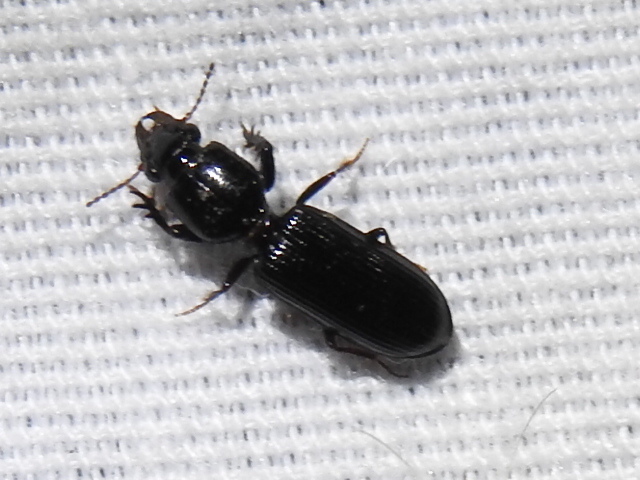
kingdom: Animalia
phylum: Arthropoda
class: Insecta
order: Coleoptera
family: Carabidae
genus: Semiclivina
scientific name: Semiclivina dentipes
